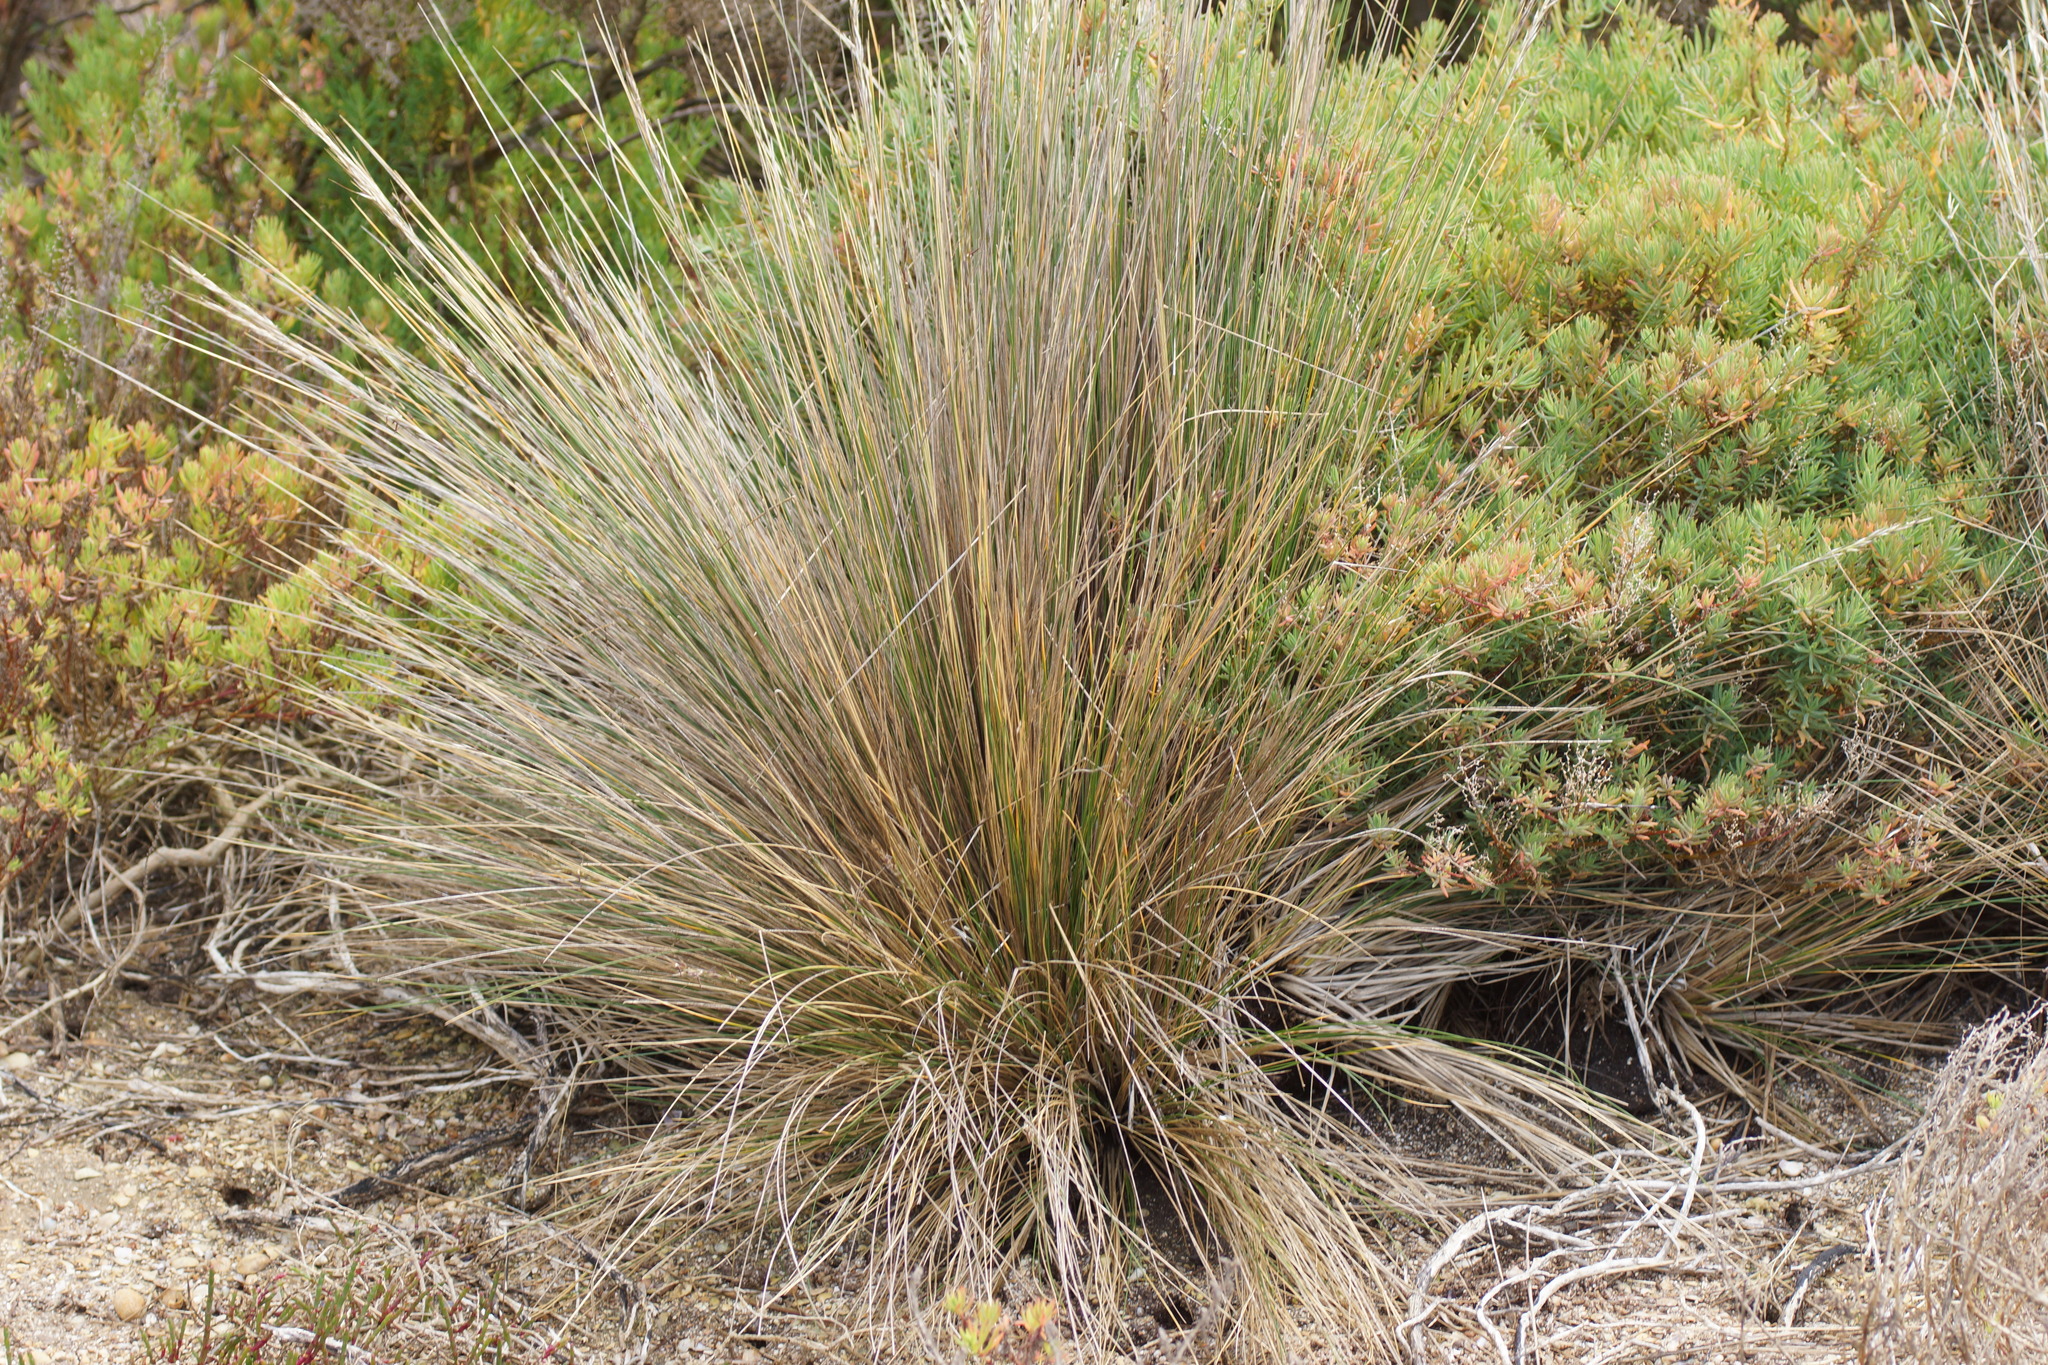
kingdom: Plantae
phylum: Tracheophyta
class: Liliopsida
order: Poales
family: Poaceae
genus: Austrostipa
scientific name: Austrostipa stipoides
